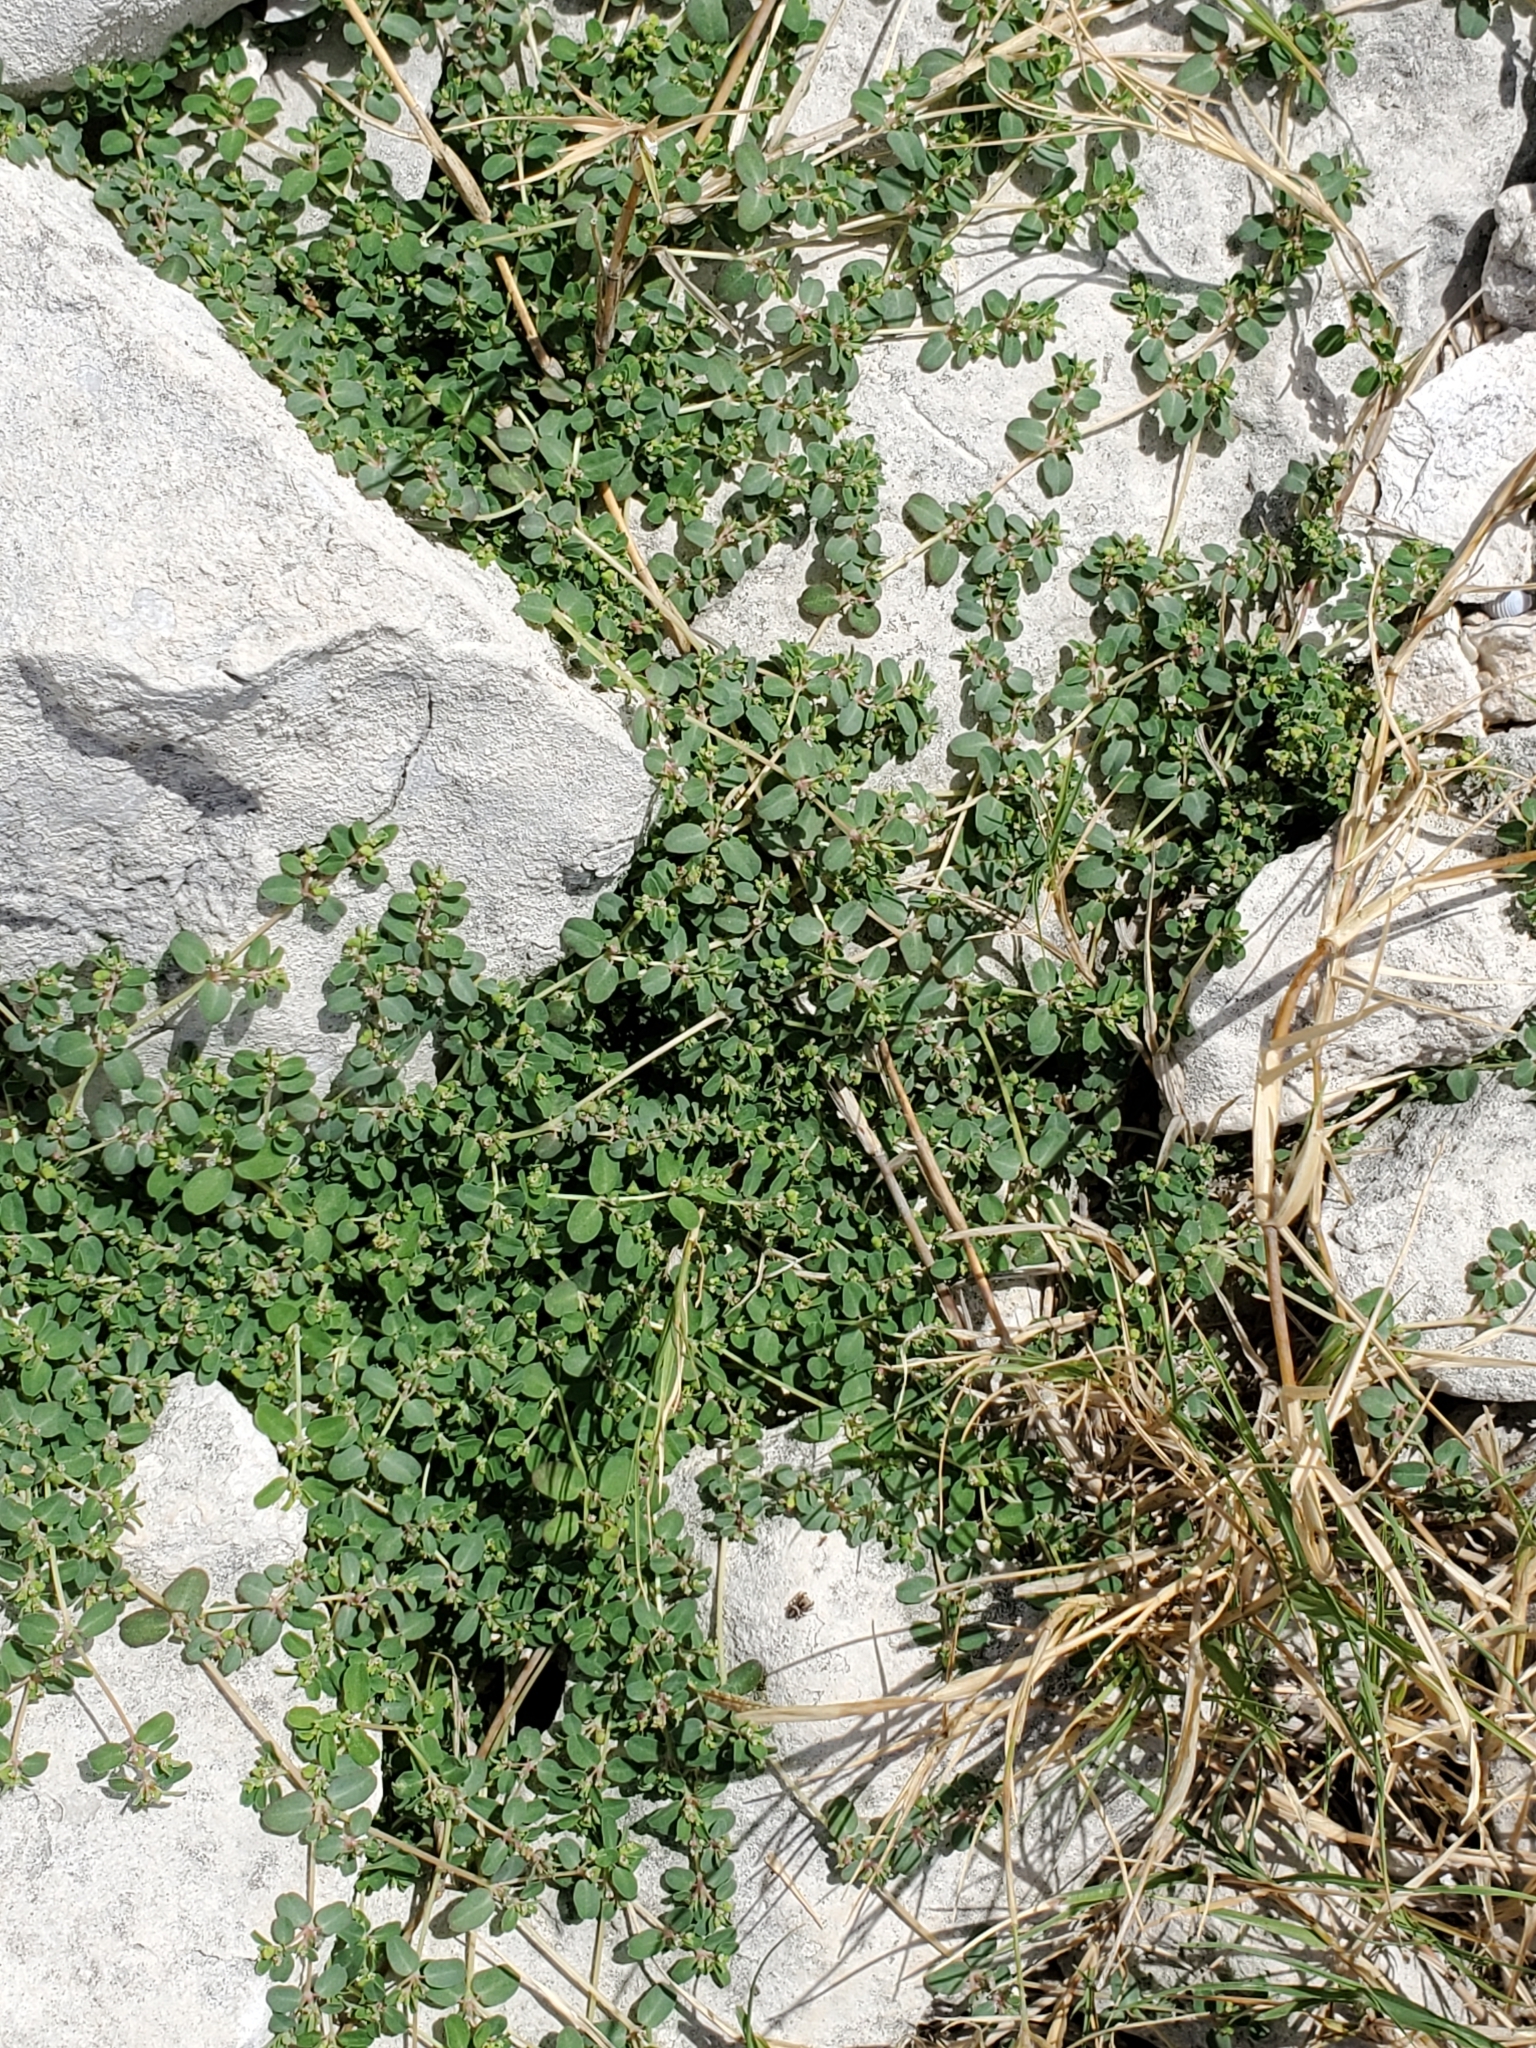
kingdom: Plantae
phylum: Tracheophyta
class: Magnoliopsida
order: Malpighiales
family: Euphorbiaceae
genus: Euphorbia
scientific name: Euphorbia serpens
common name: Matted sandmat
